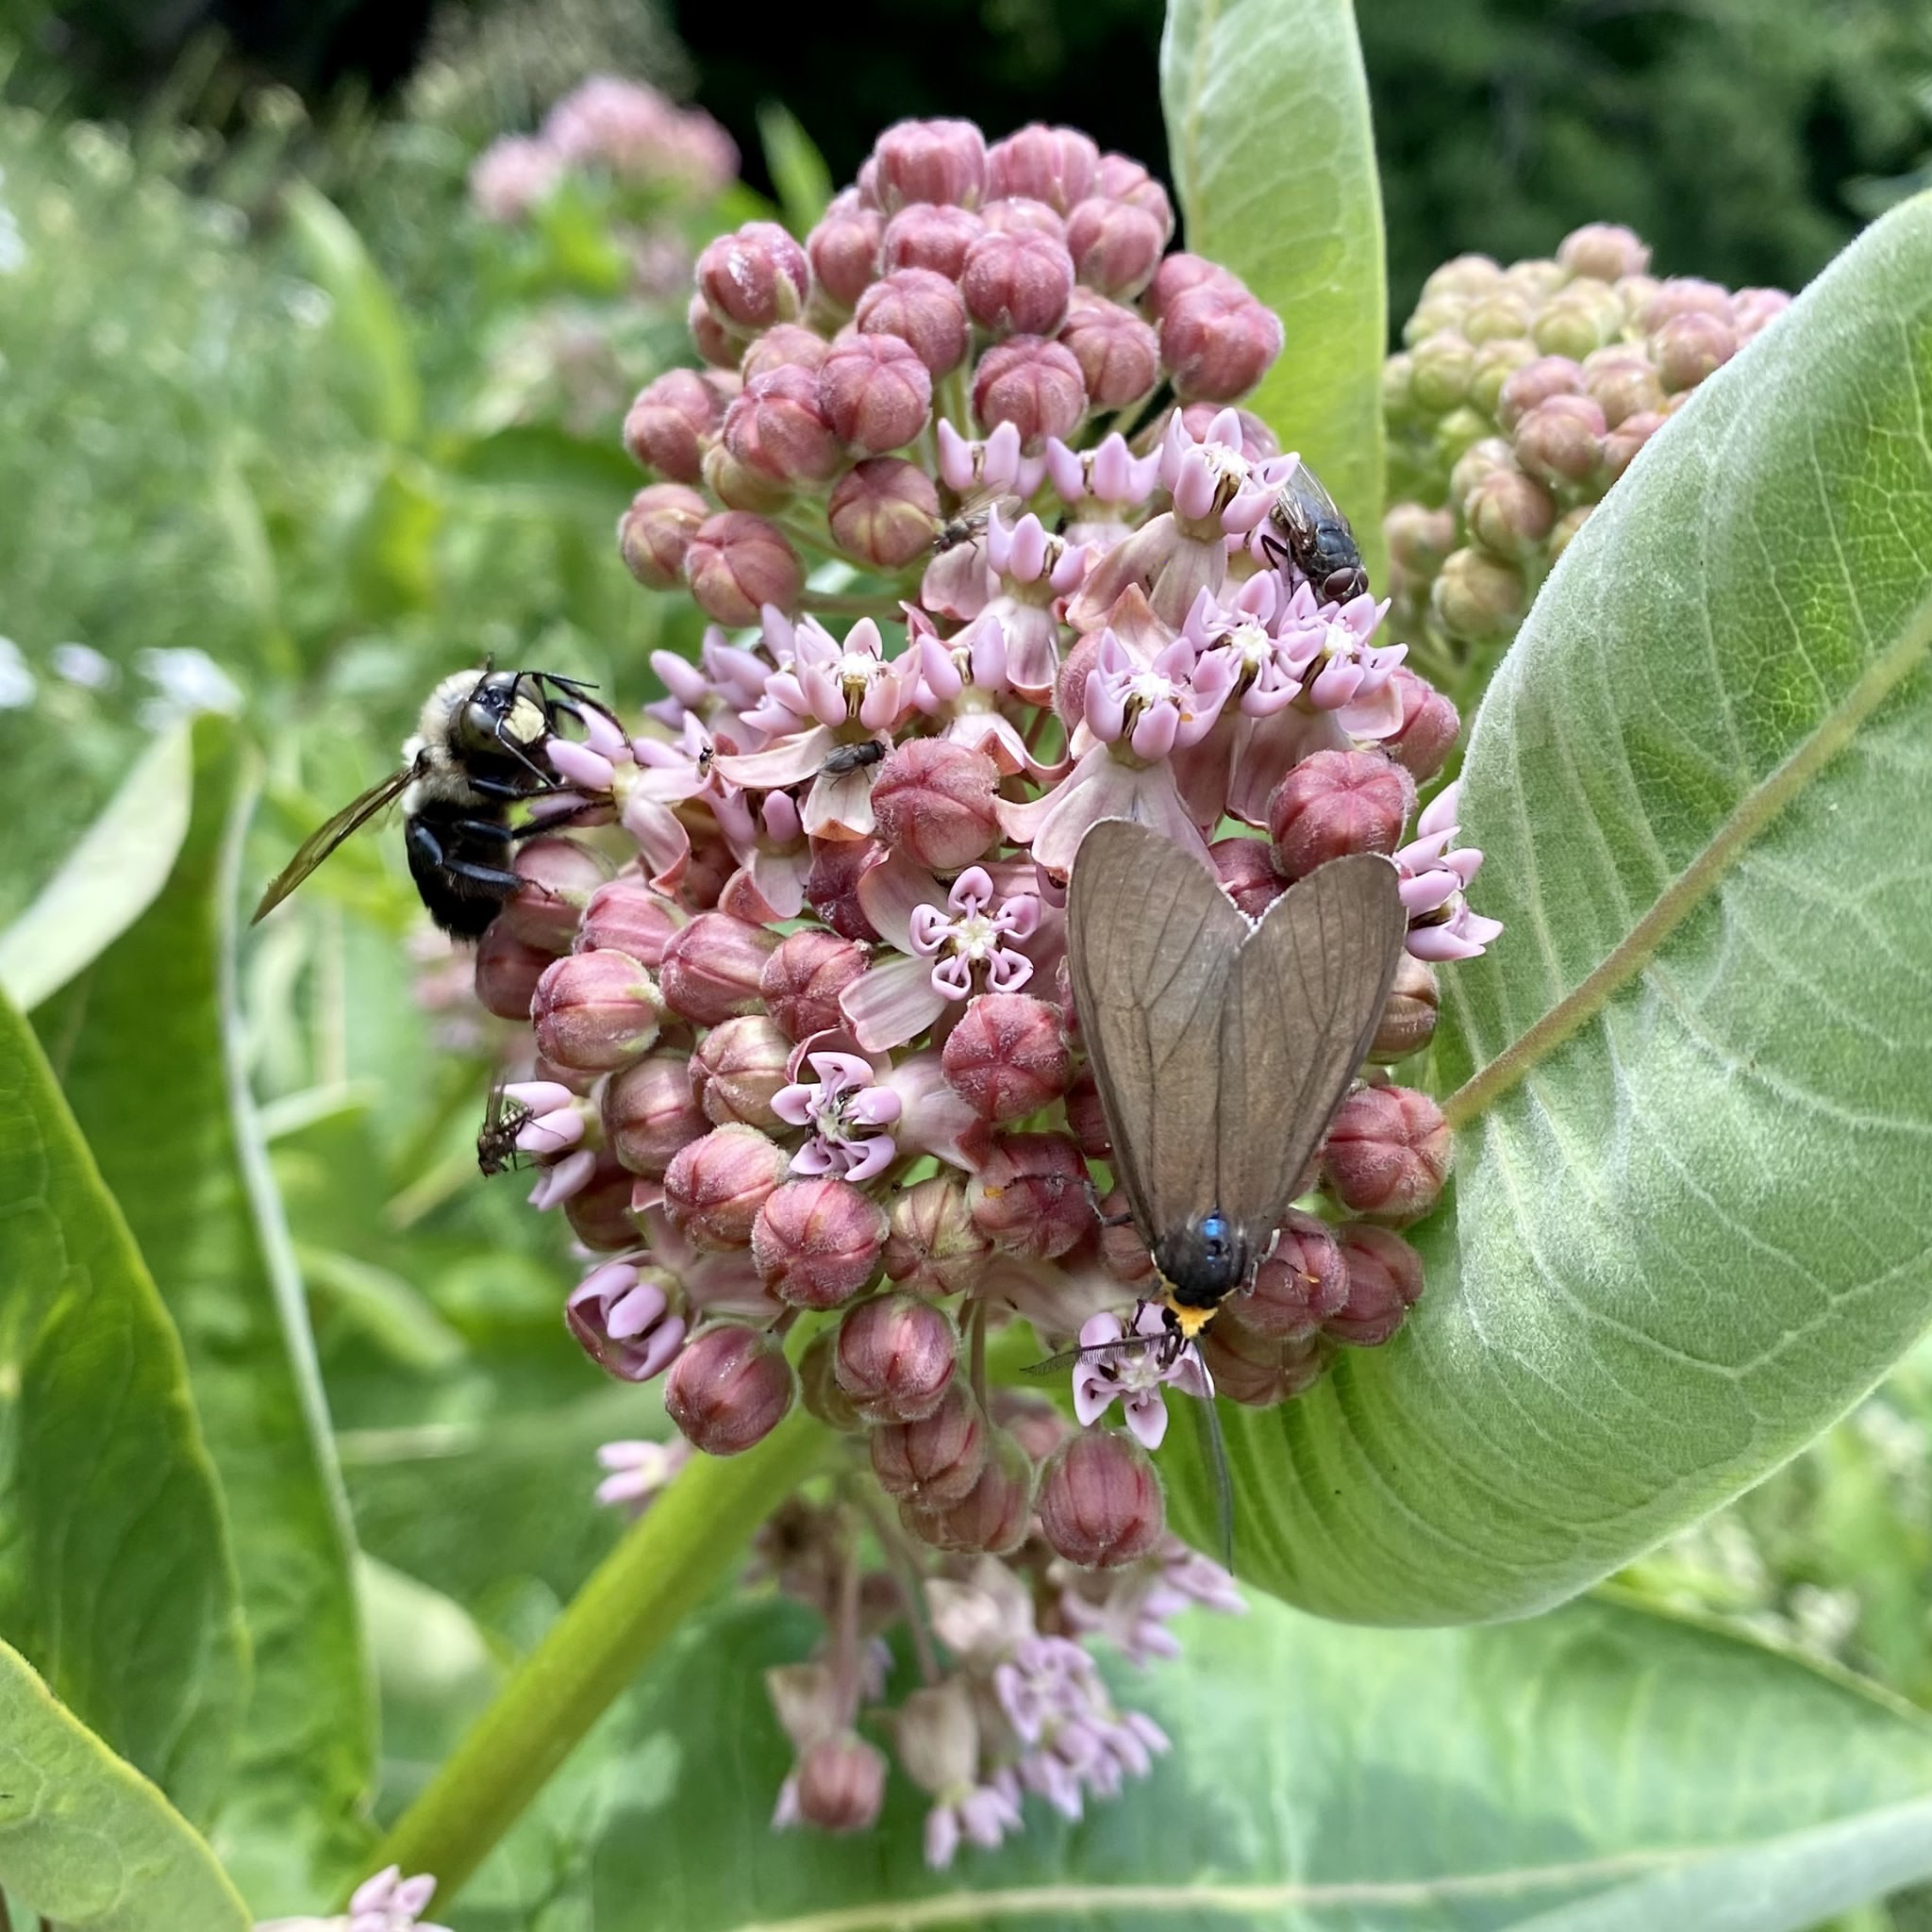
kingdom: Animalia
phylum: Arthropoda
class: Insecta
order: Lepidoptera
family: Erebidae
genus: Ctenucha
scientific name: Ctenucha virginica
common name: Virginia ctenucha moth
